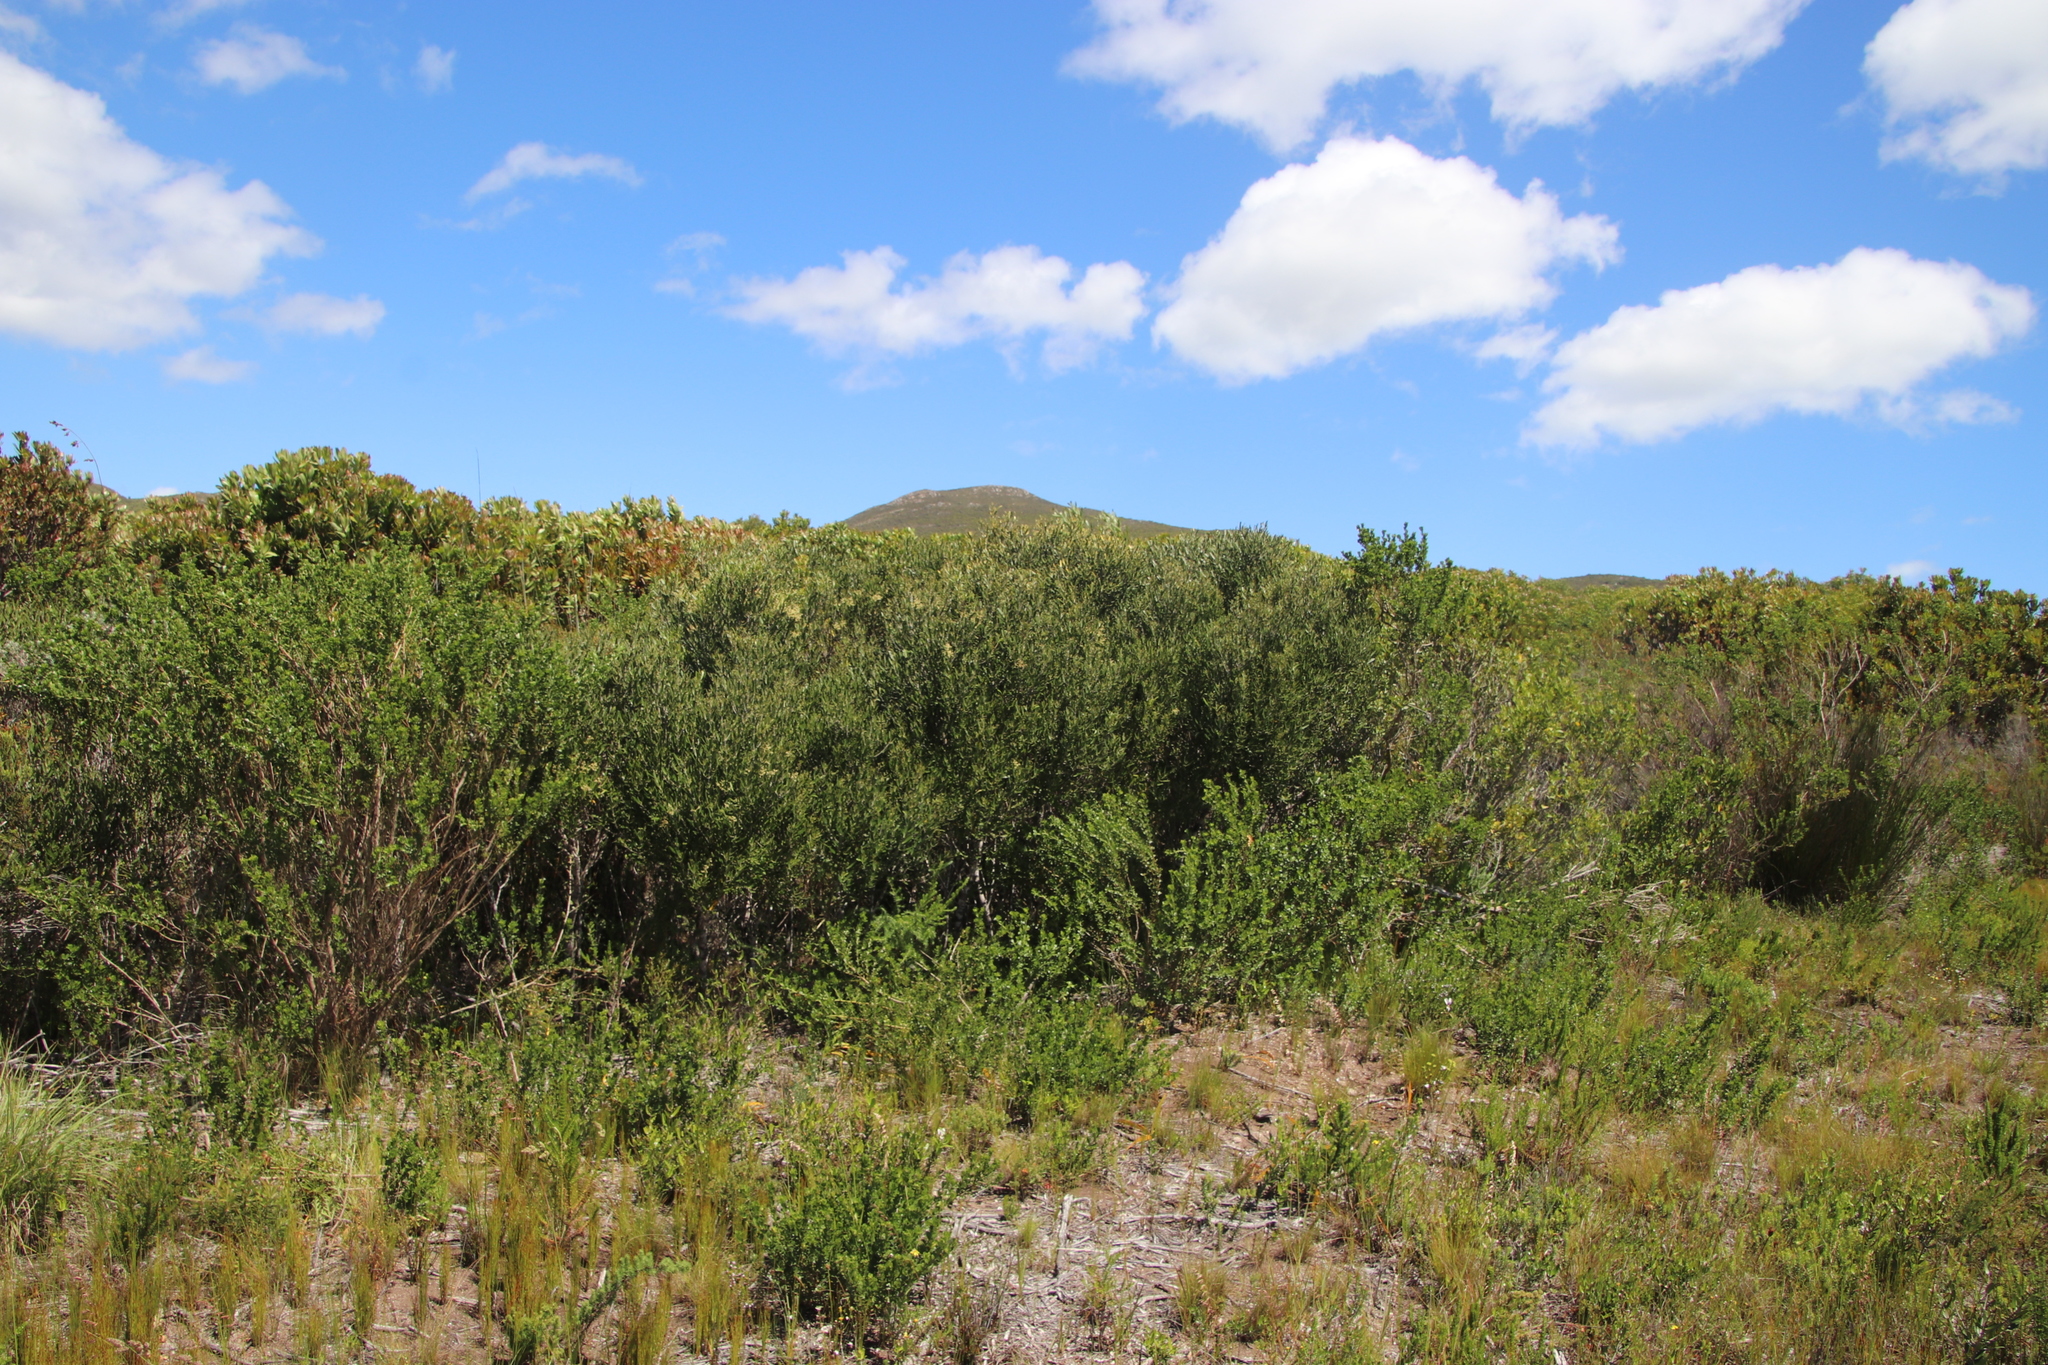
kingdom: Plantae
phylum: Tracheophyta
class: Magnoliopsida
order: Lamiales
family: Oleaceae
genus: Olea
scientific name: Olea exasperata
